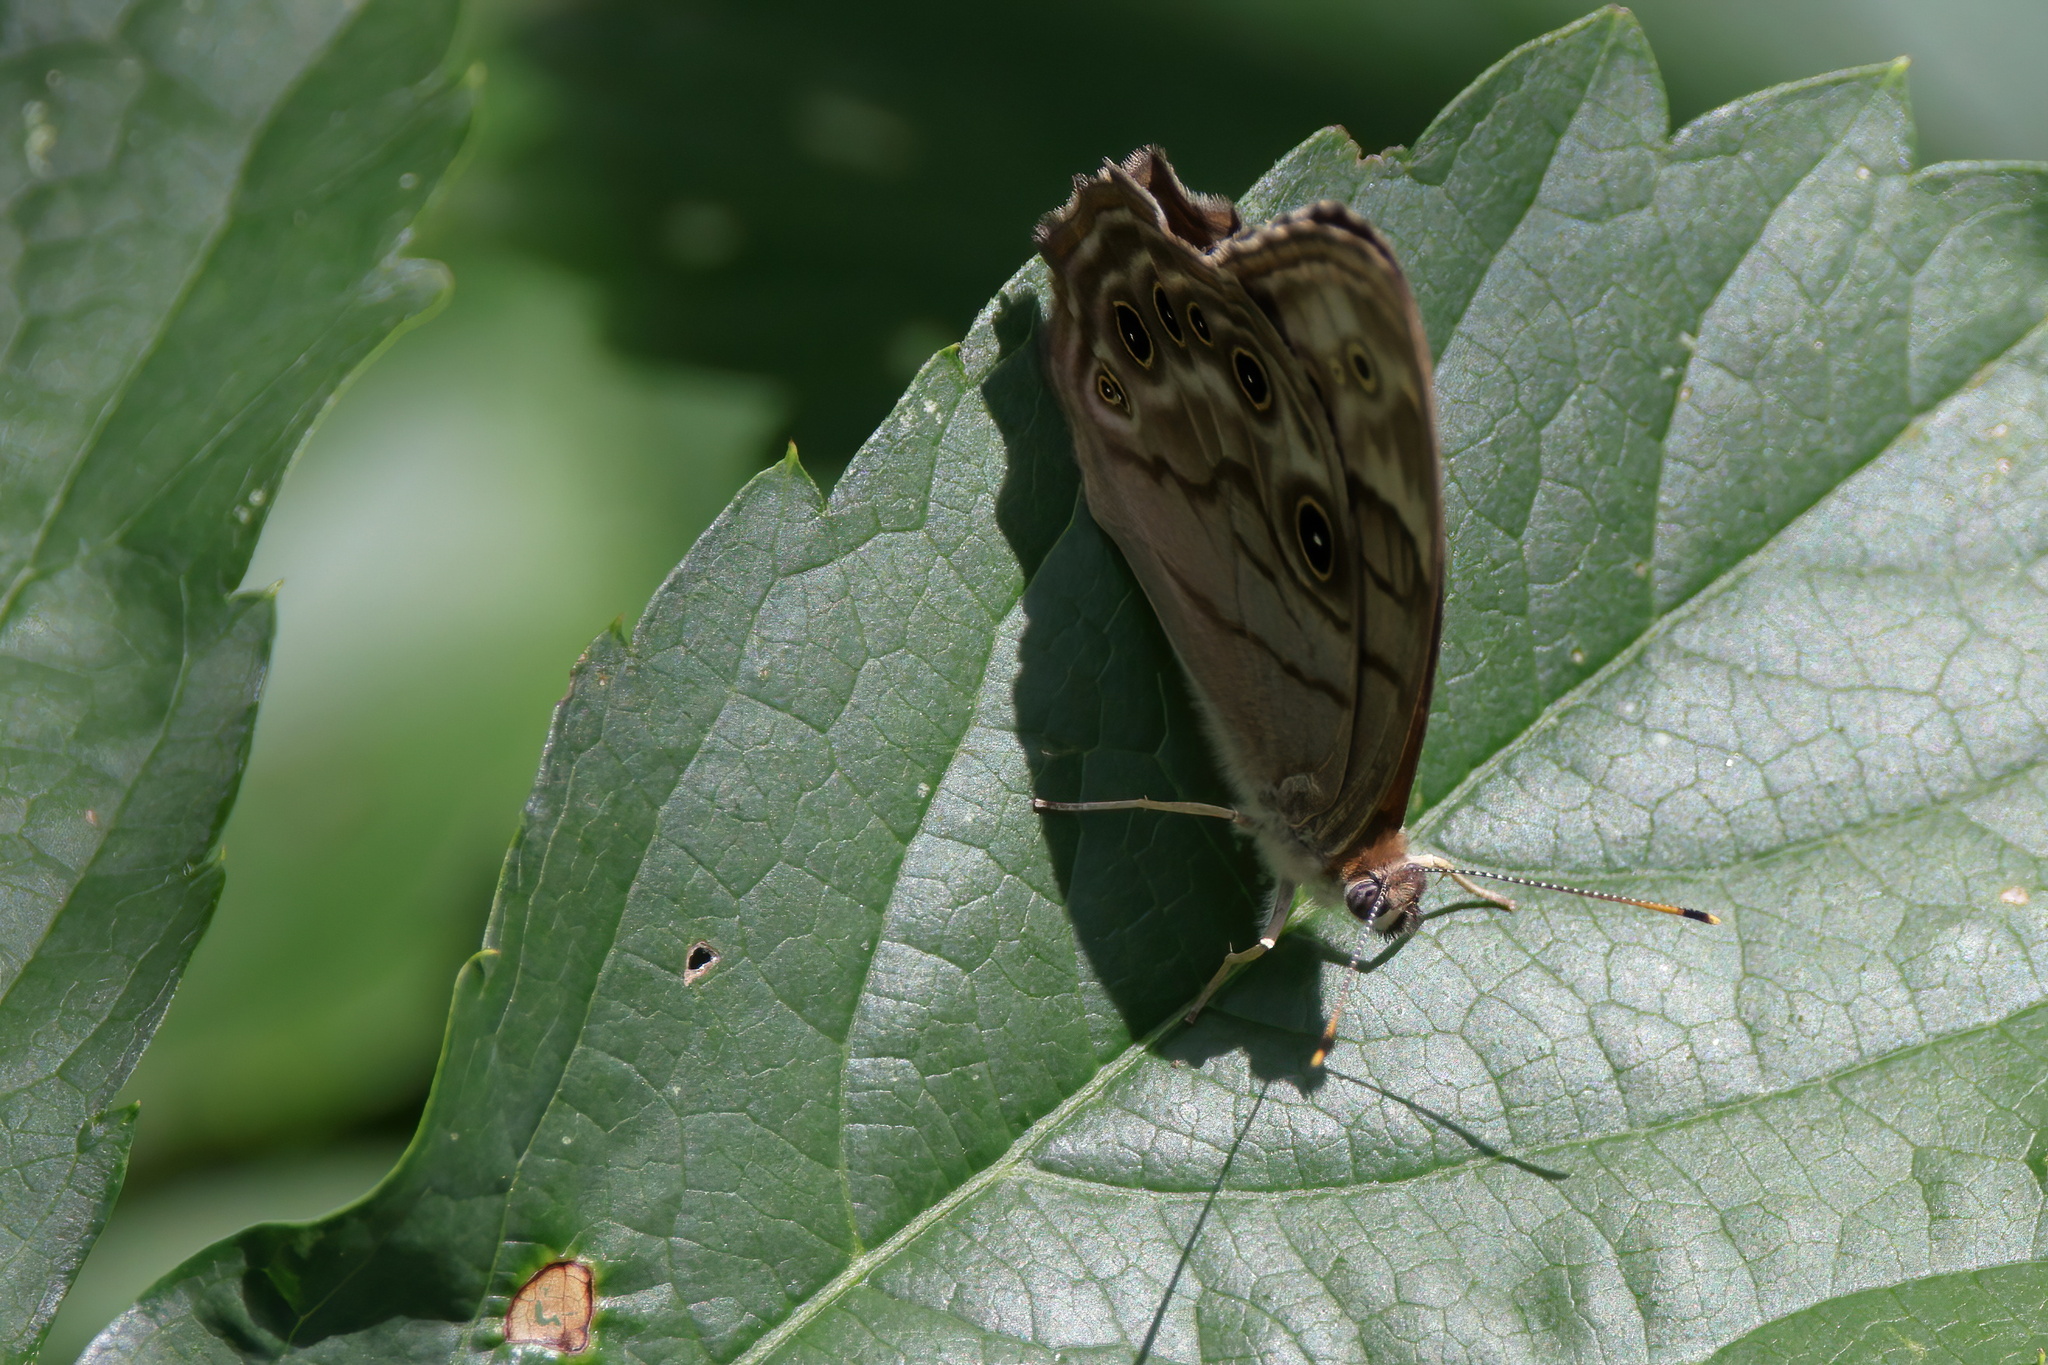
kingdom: Animalia
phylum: Arthropoda
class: Insecta
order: Lepidoptera
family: Nymphalidae
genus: Lethe
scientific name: Lethe anthedon
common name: Northern pearly-eye
